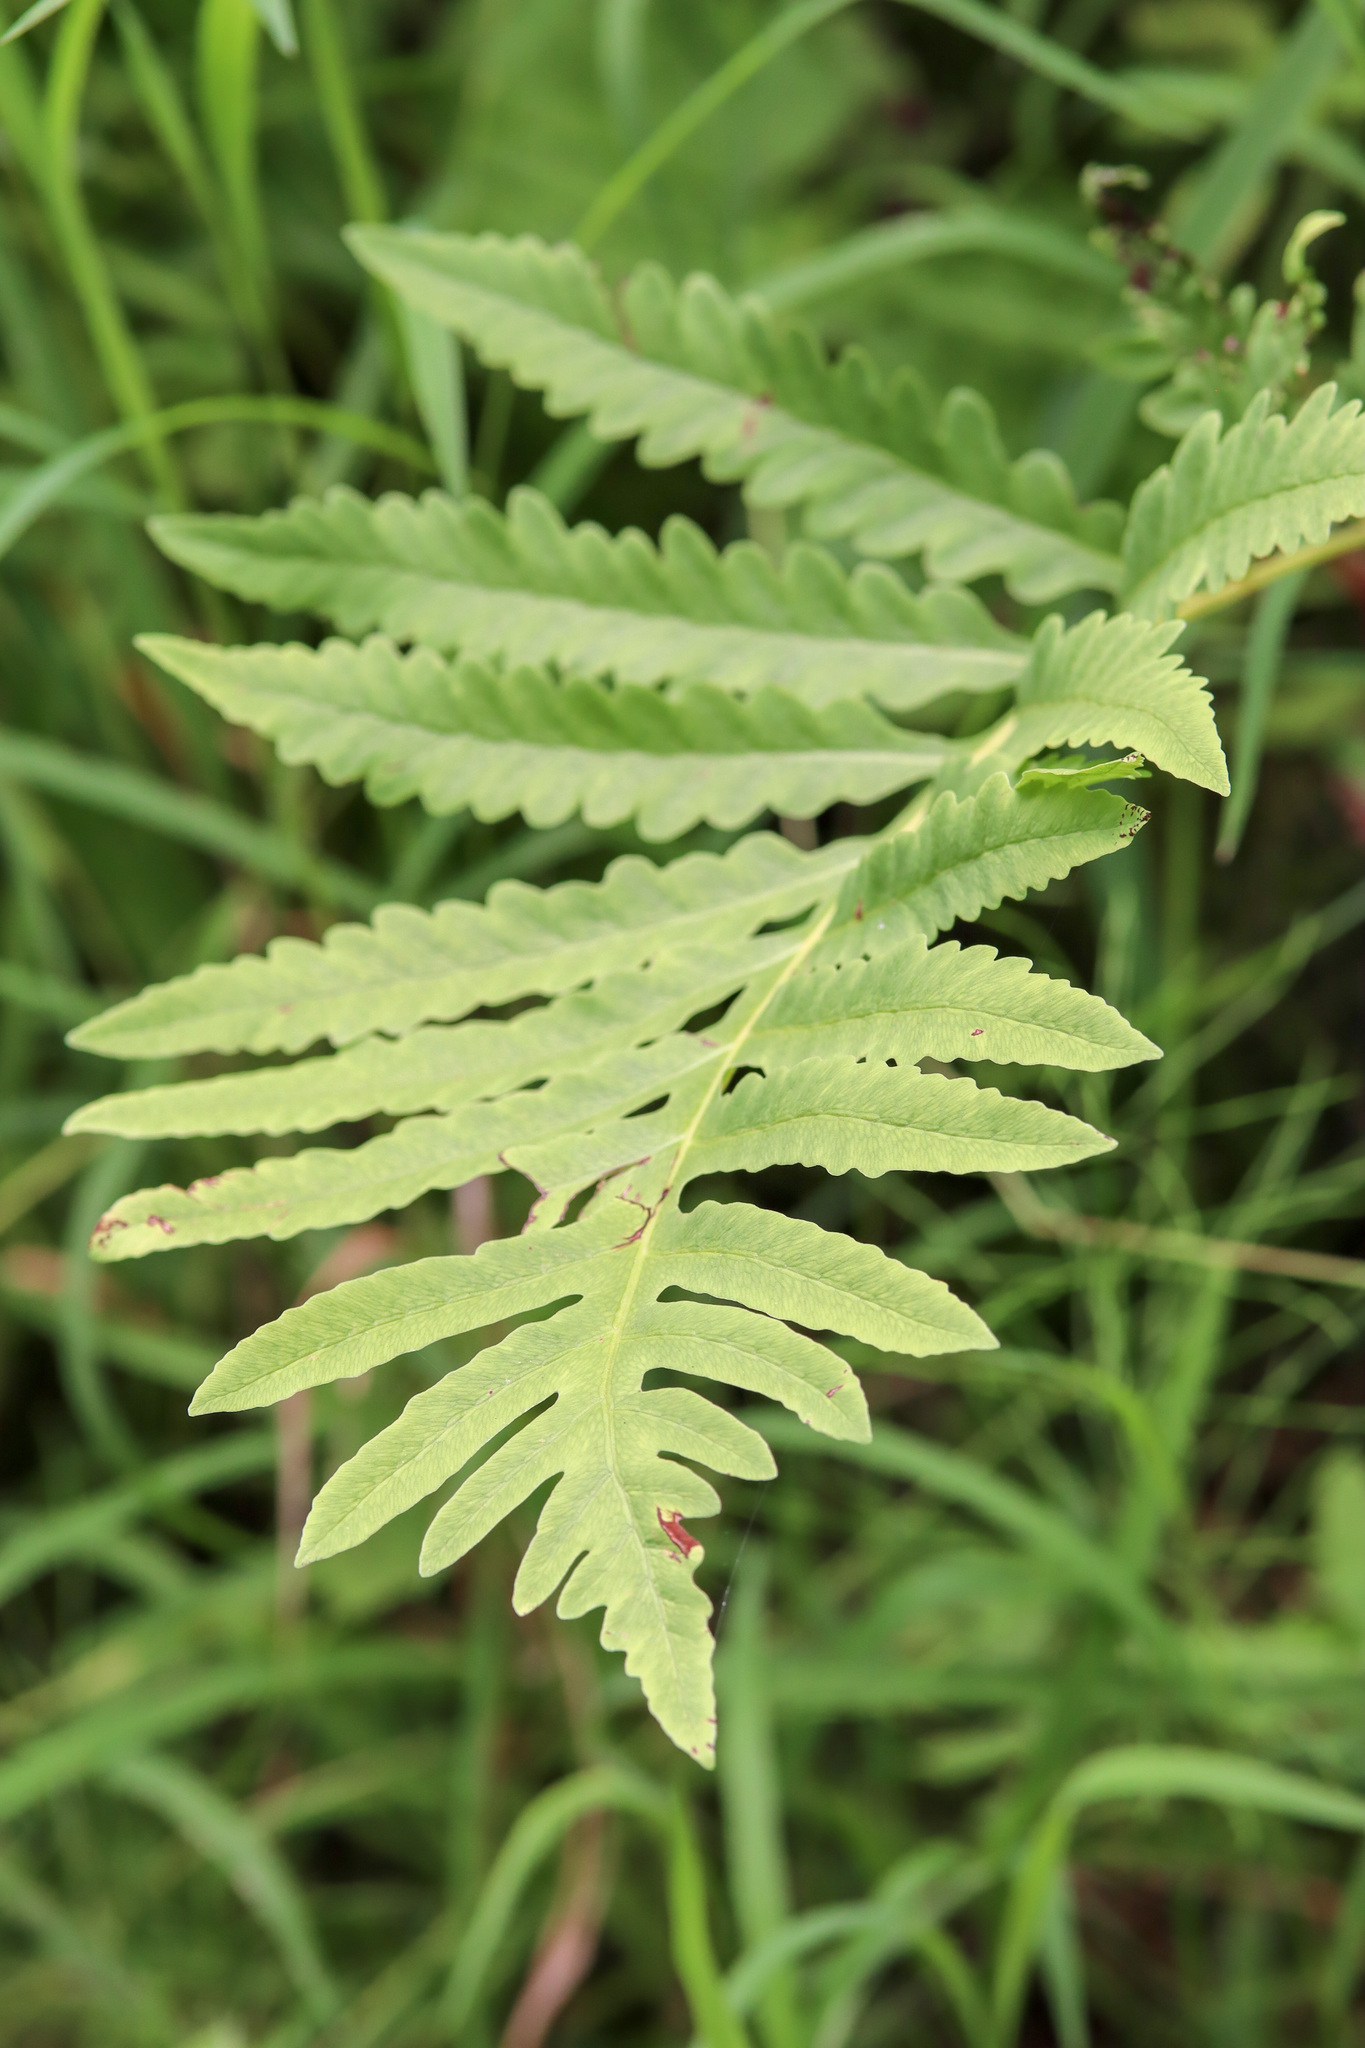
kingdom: Plantae
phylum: Tracheophyta
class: Polypodiopsida
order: Polypodiales
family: Onocleaceae
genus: Onoclea
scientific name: Onoclea sensibilis
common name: Sensitive fern
